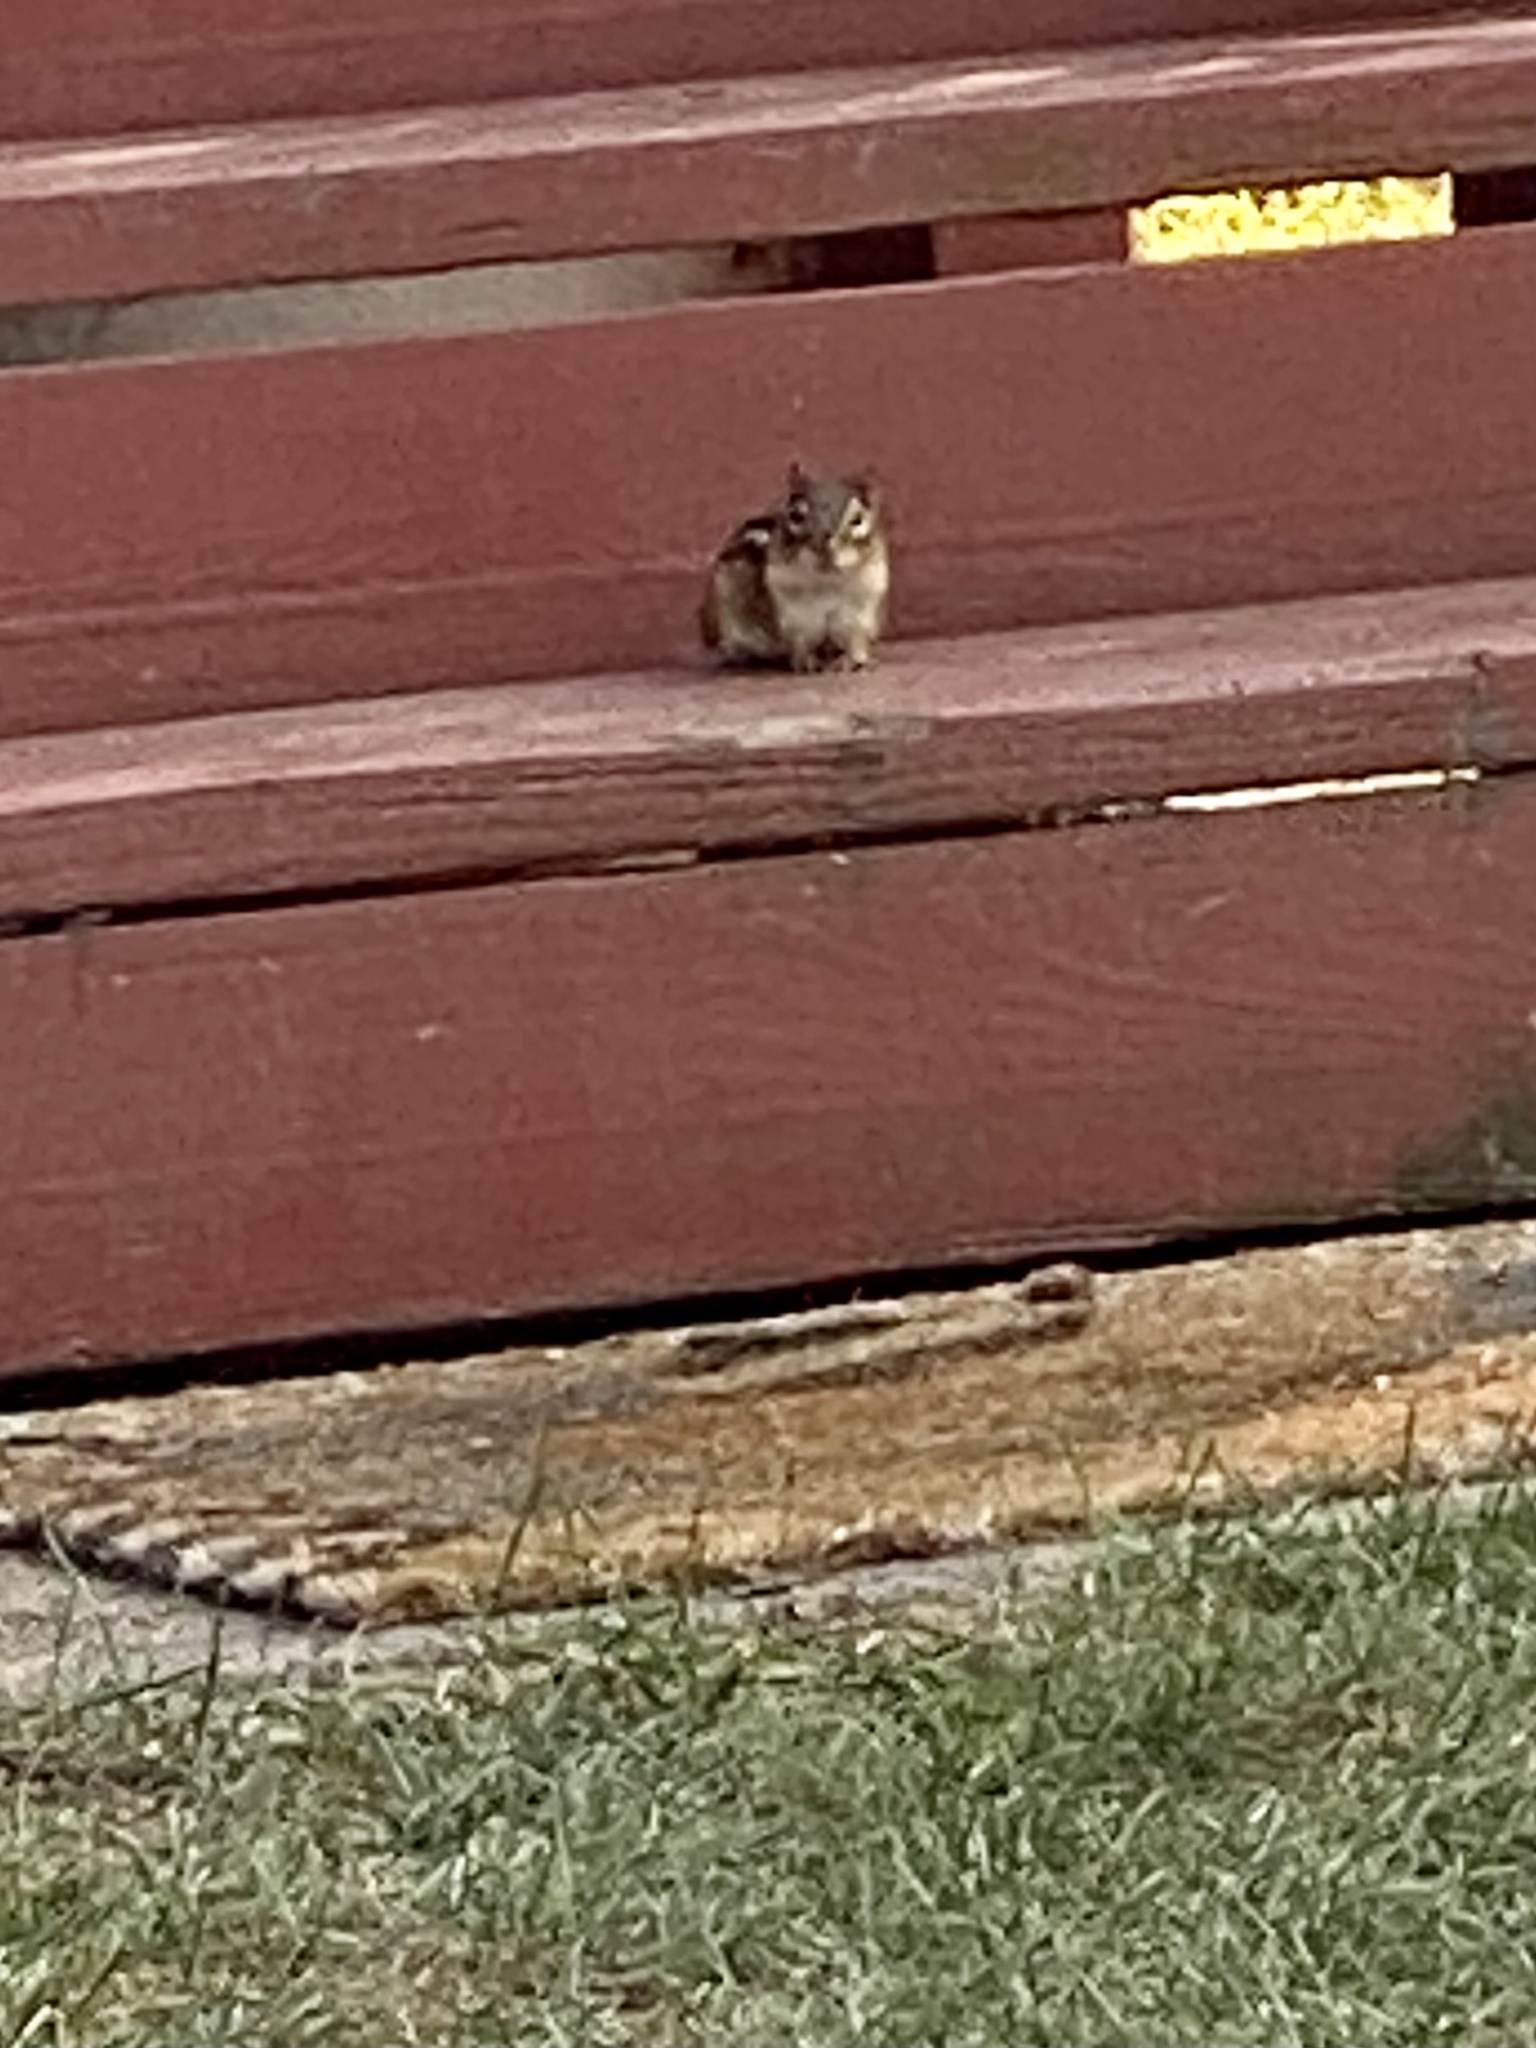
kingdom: Animalia
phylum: Chordata
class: Mammalia
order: Rodentia
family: Sciuridae
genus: Tamias
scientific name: Tamias striatus
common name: Eastern chipmunk
